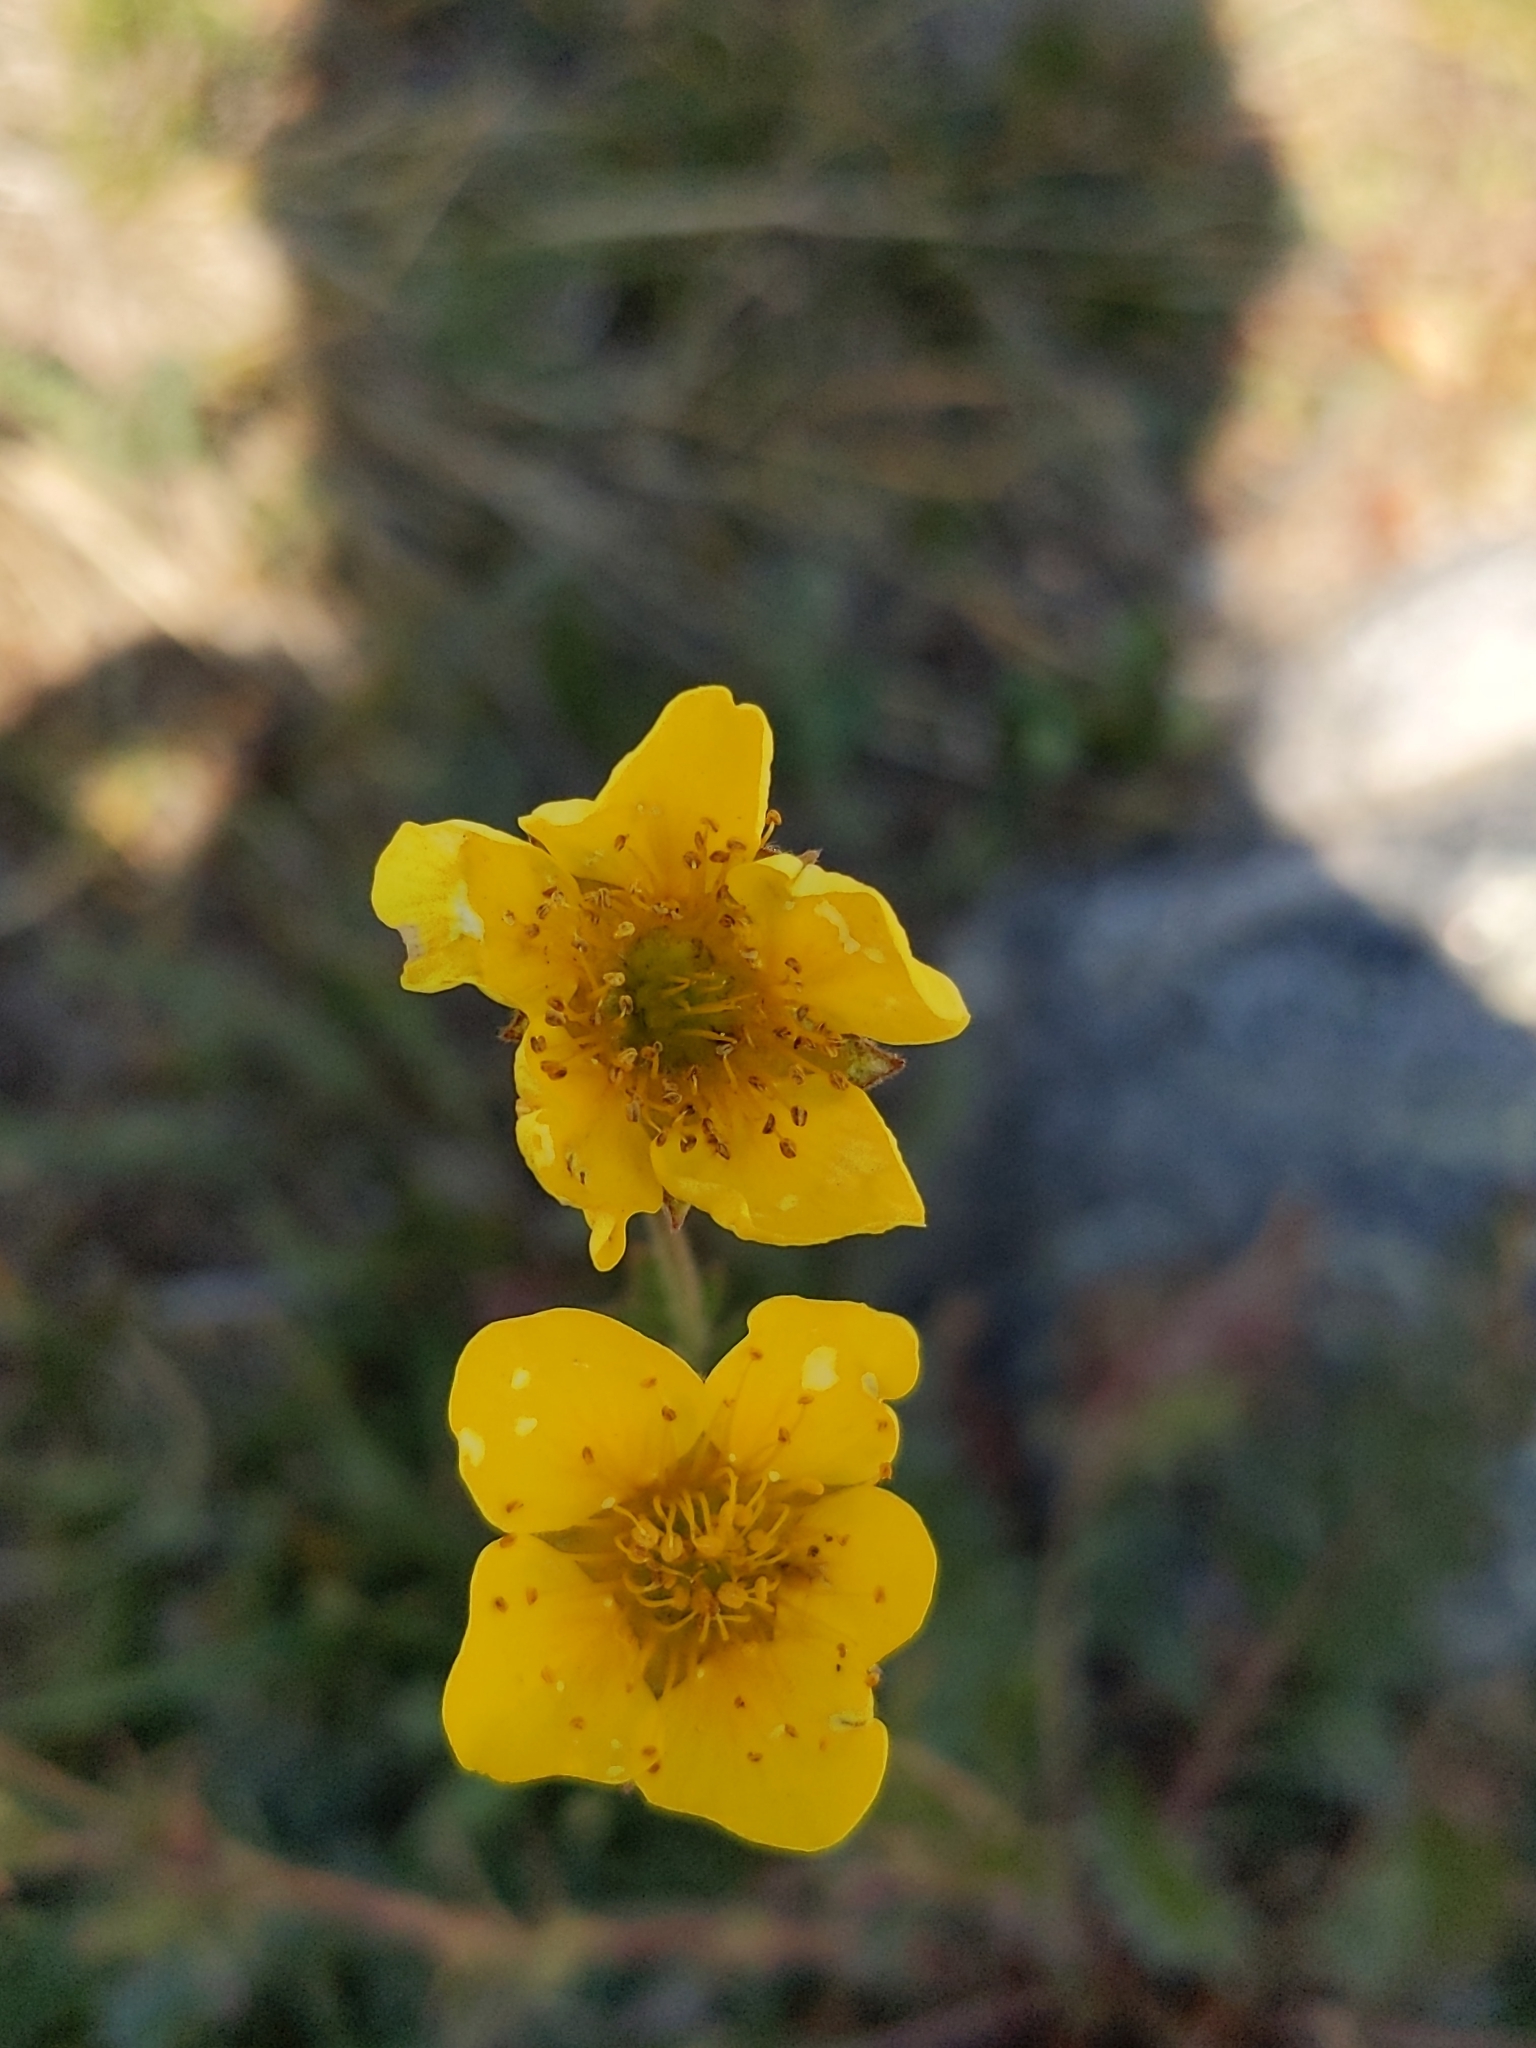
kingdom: Plantae
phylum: Tracheophyta
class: Magnoliopsida
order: Rosales
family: Rosaceae
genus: Geum
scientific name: Geum rossii
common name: Alpine avens
